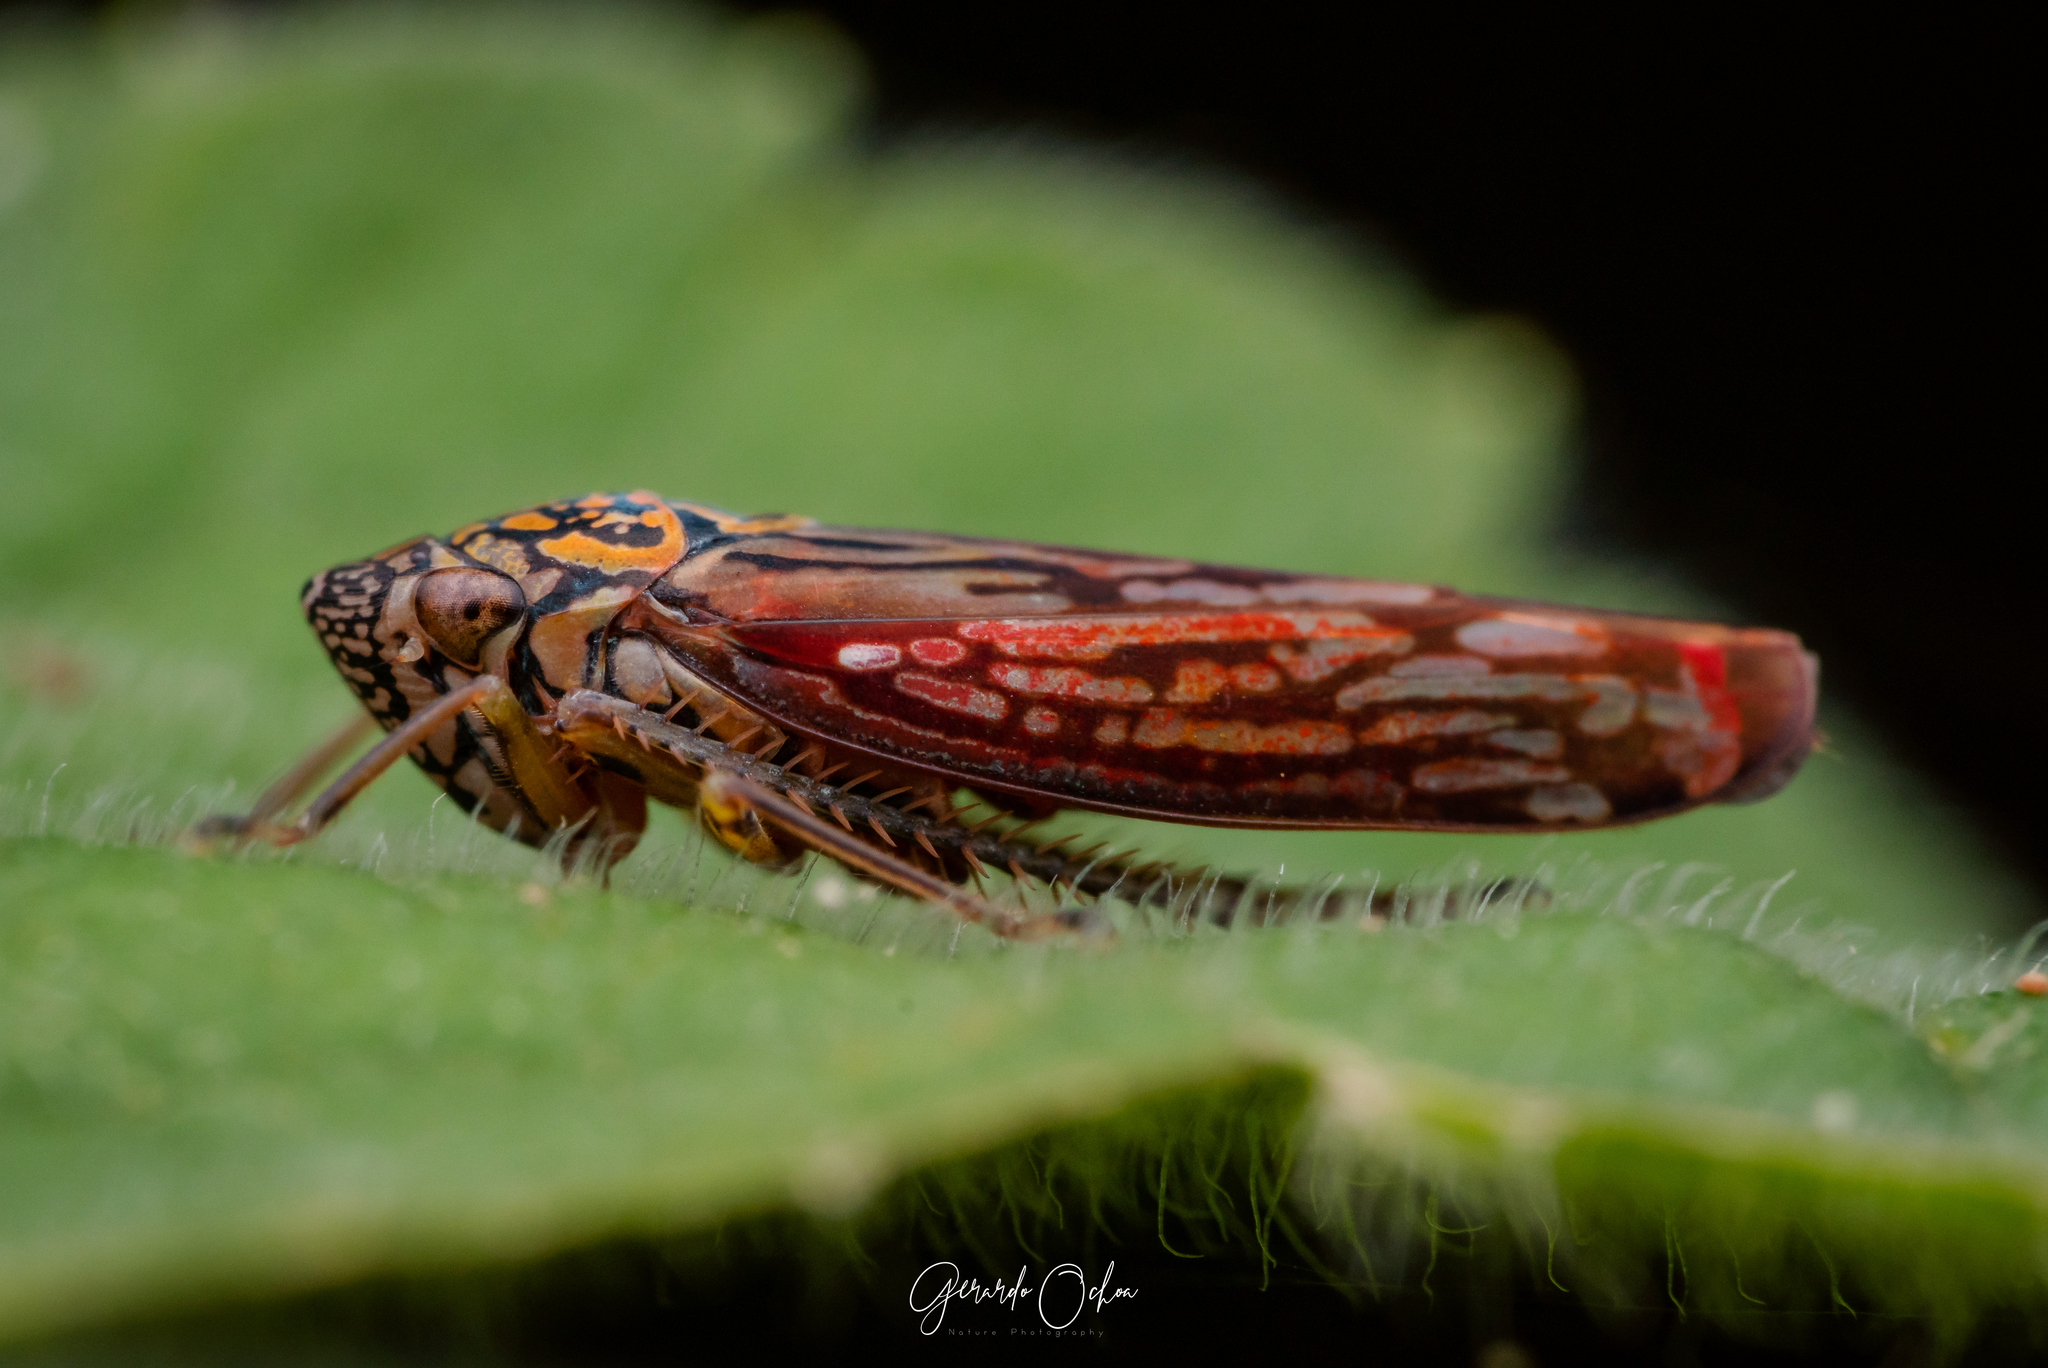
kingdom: Animalia
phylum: Arthropoda
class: Insecta
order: Hemiptera
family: Cicadellidae
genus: Graphocephala
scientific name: Graphocephala edwardsii
